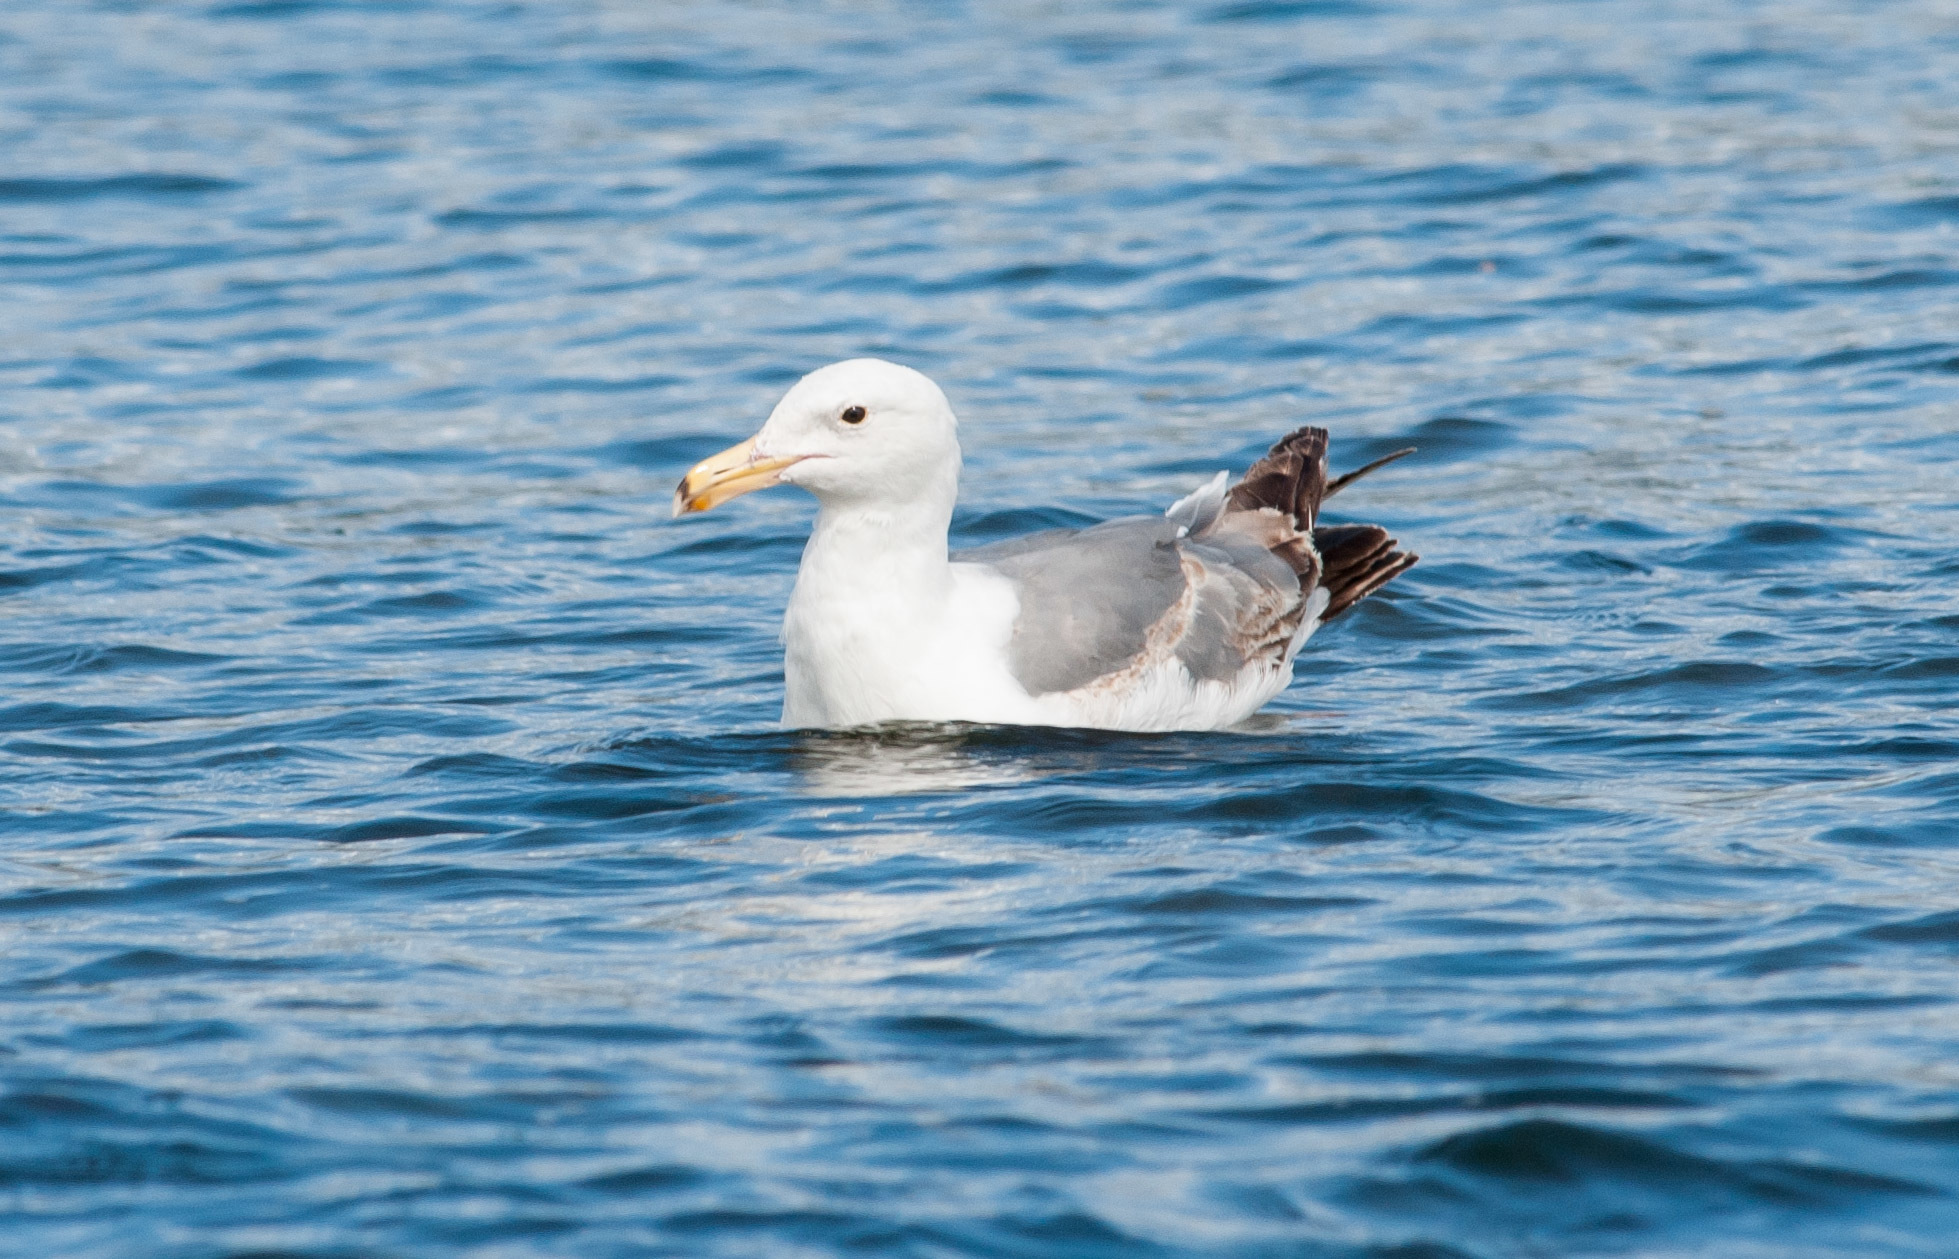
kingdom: Animalia
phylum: Chordata
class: Aves
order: Charadriiformes
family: Laridae
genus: Larus
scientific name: Larus occidentalis
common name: Western gull
